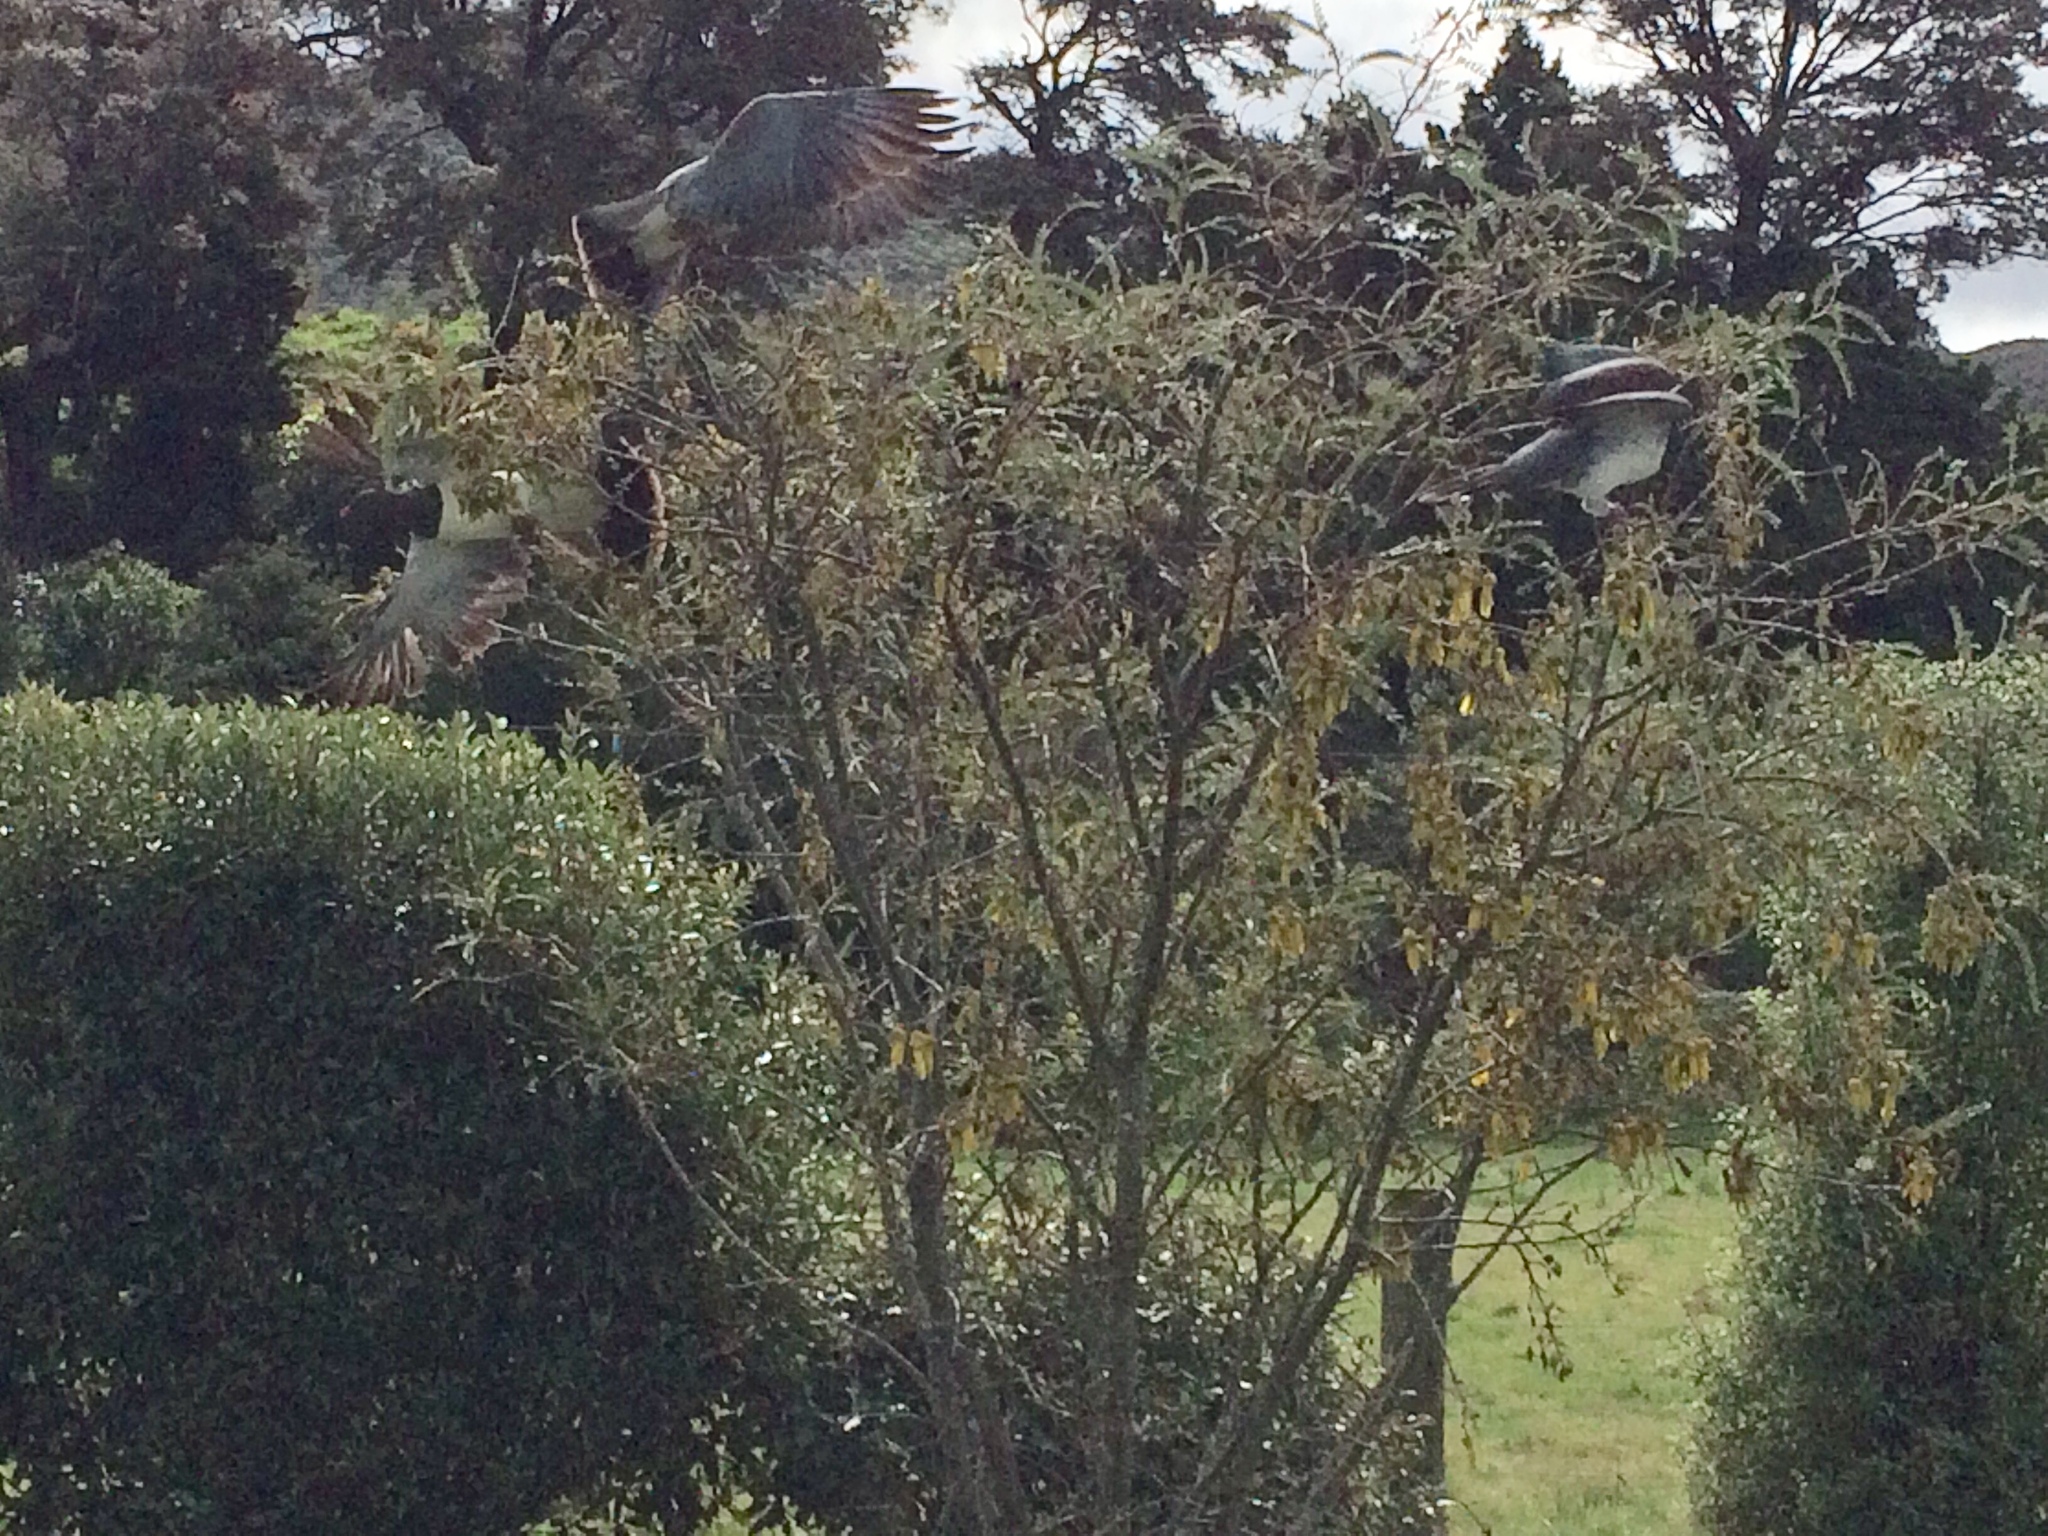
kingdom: Animalia
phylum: Chordata
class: Aves
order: Columbiformes
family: Columbidae
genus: Hemiphaga
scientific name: Hemiphaga novaeseelandiae
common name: New zealand pigeon
